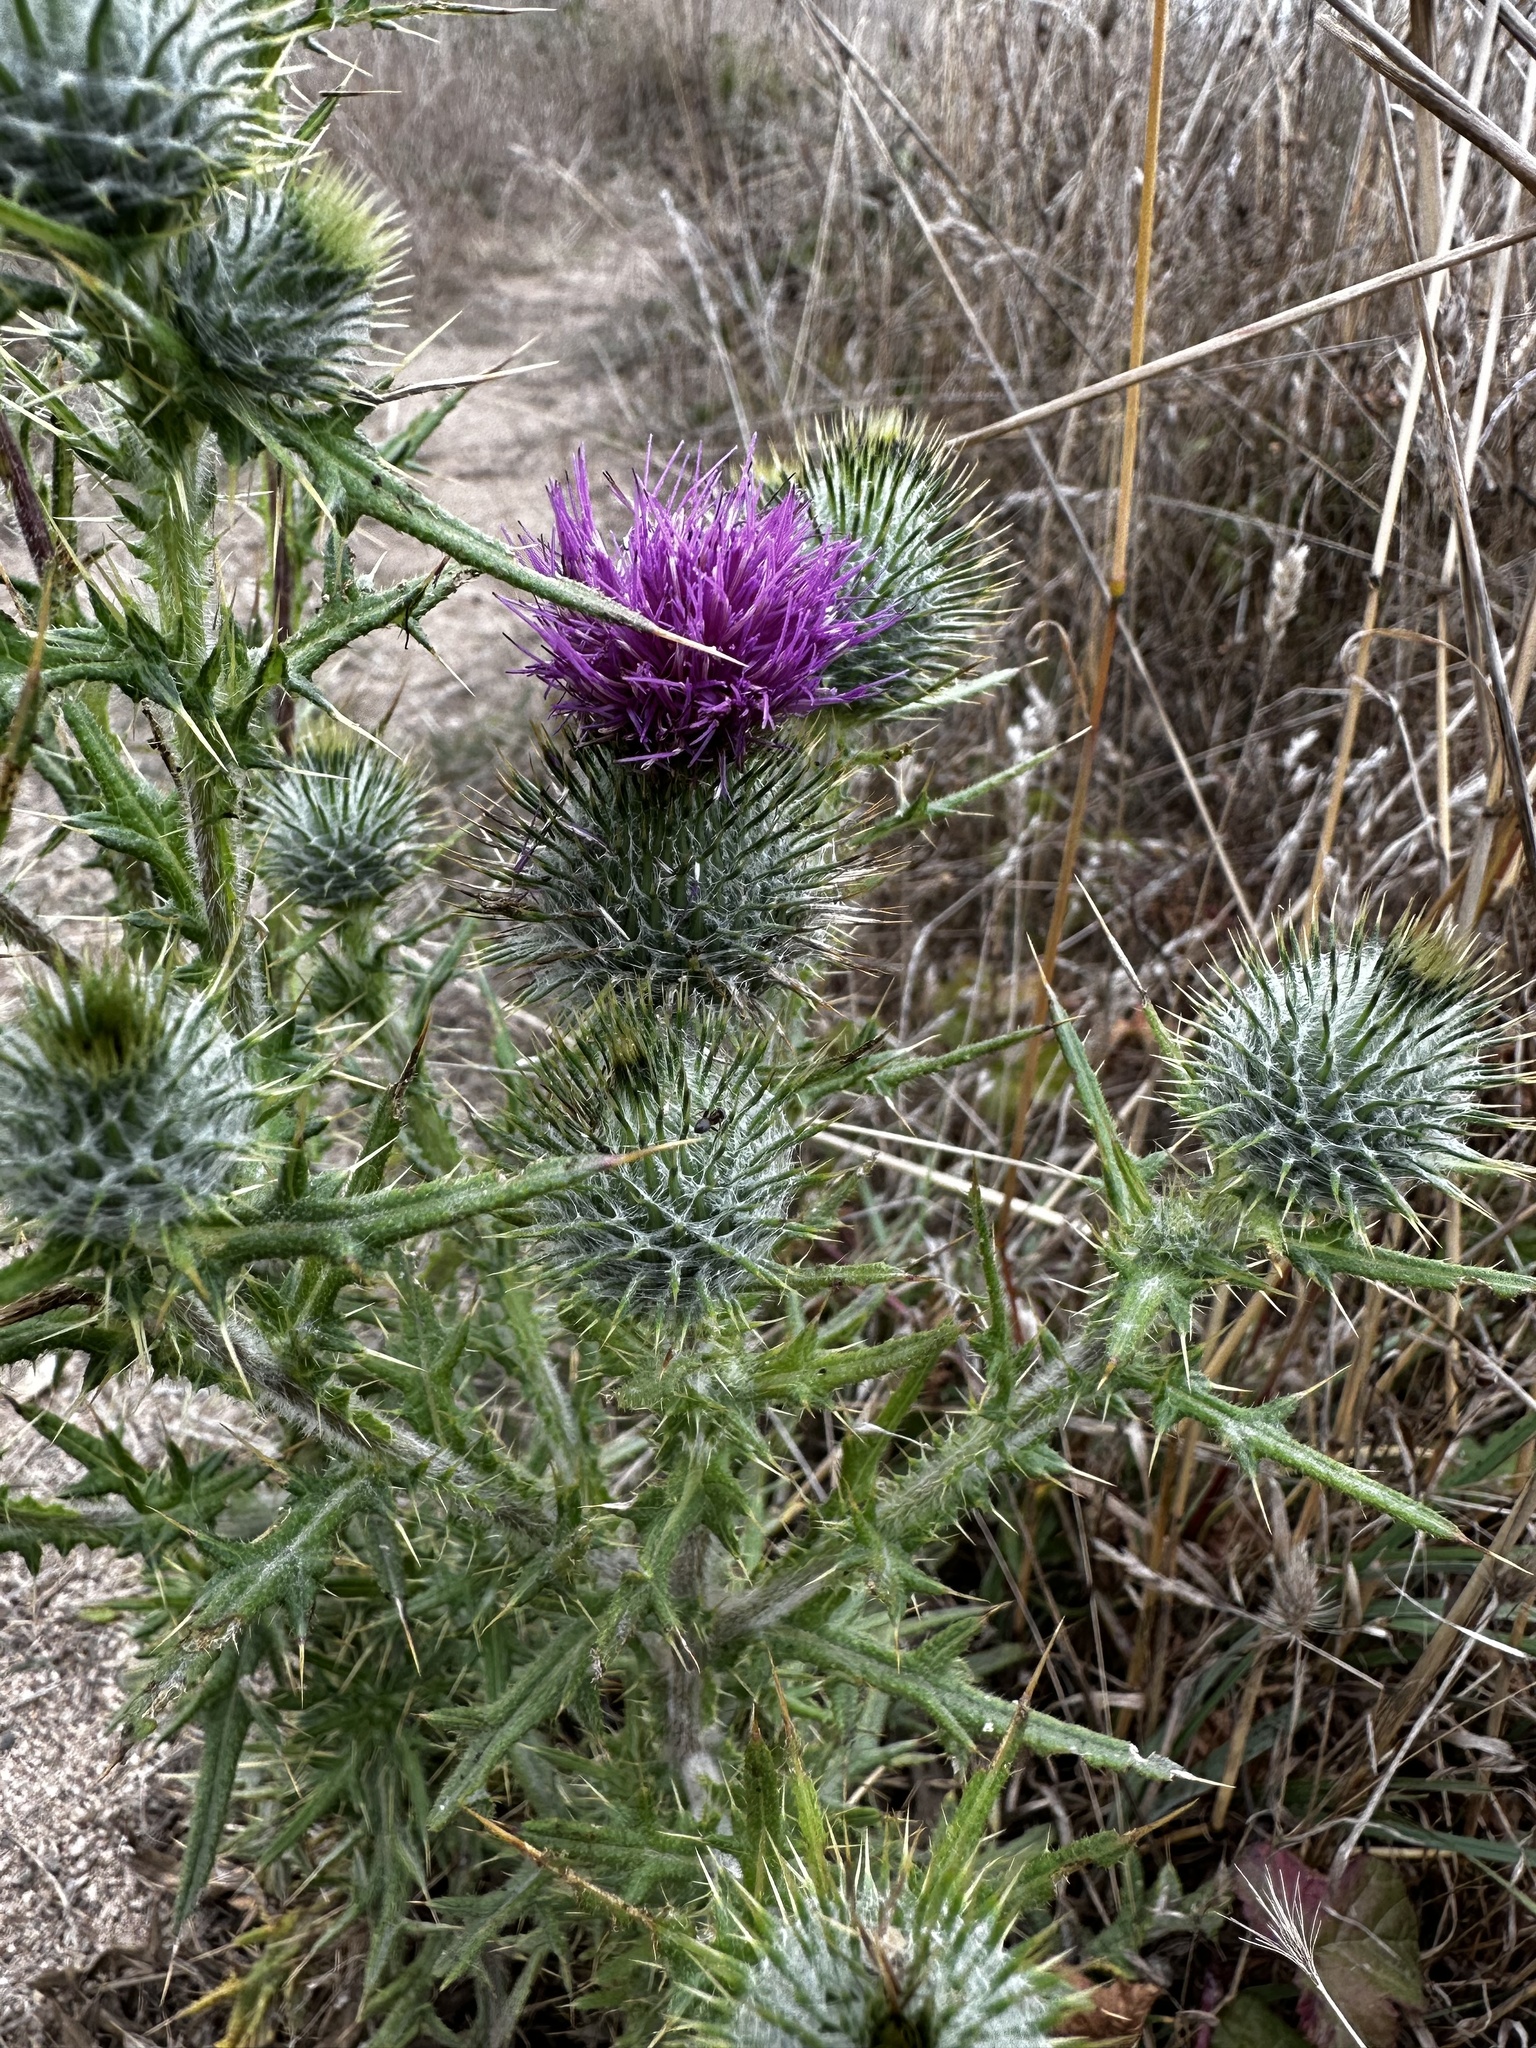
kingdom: Plantae
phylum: Tracheophyta
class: Magnoliopsida
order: Asterales
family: Asteraceae
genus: Cirsium
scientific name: Cirsium vulgare
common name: Bull thistle
